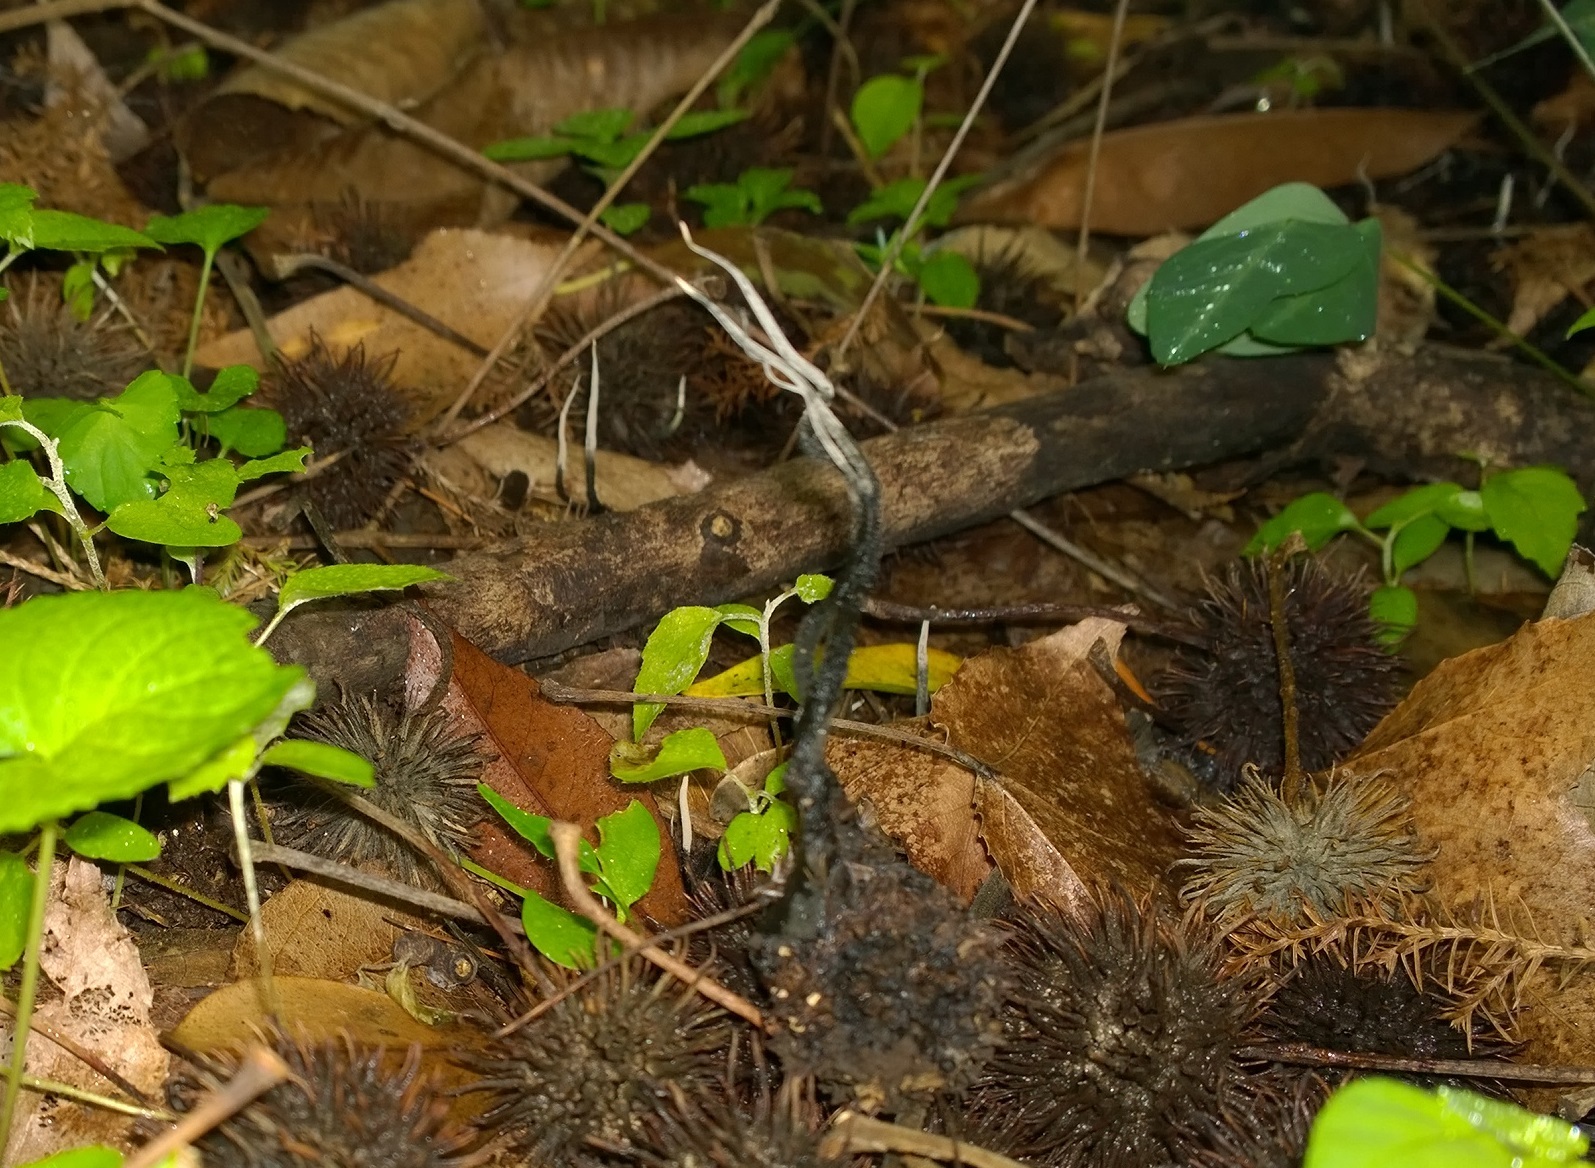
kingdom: Fungi
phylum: Ascomycota
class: Sordariomycetes
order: Xylariales
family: Xylariaceae
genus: Xylaria
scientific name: Xylaria liquidambaris
